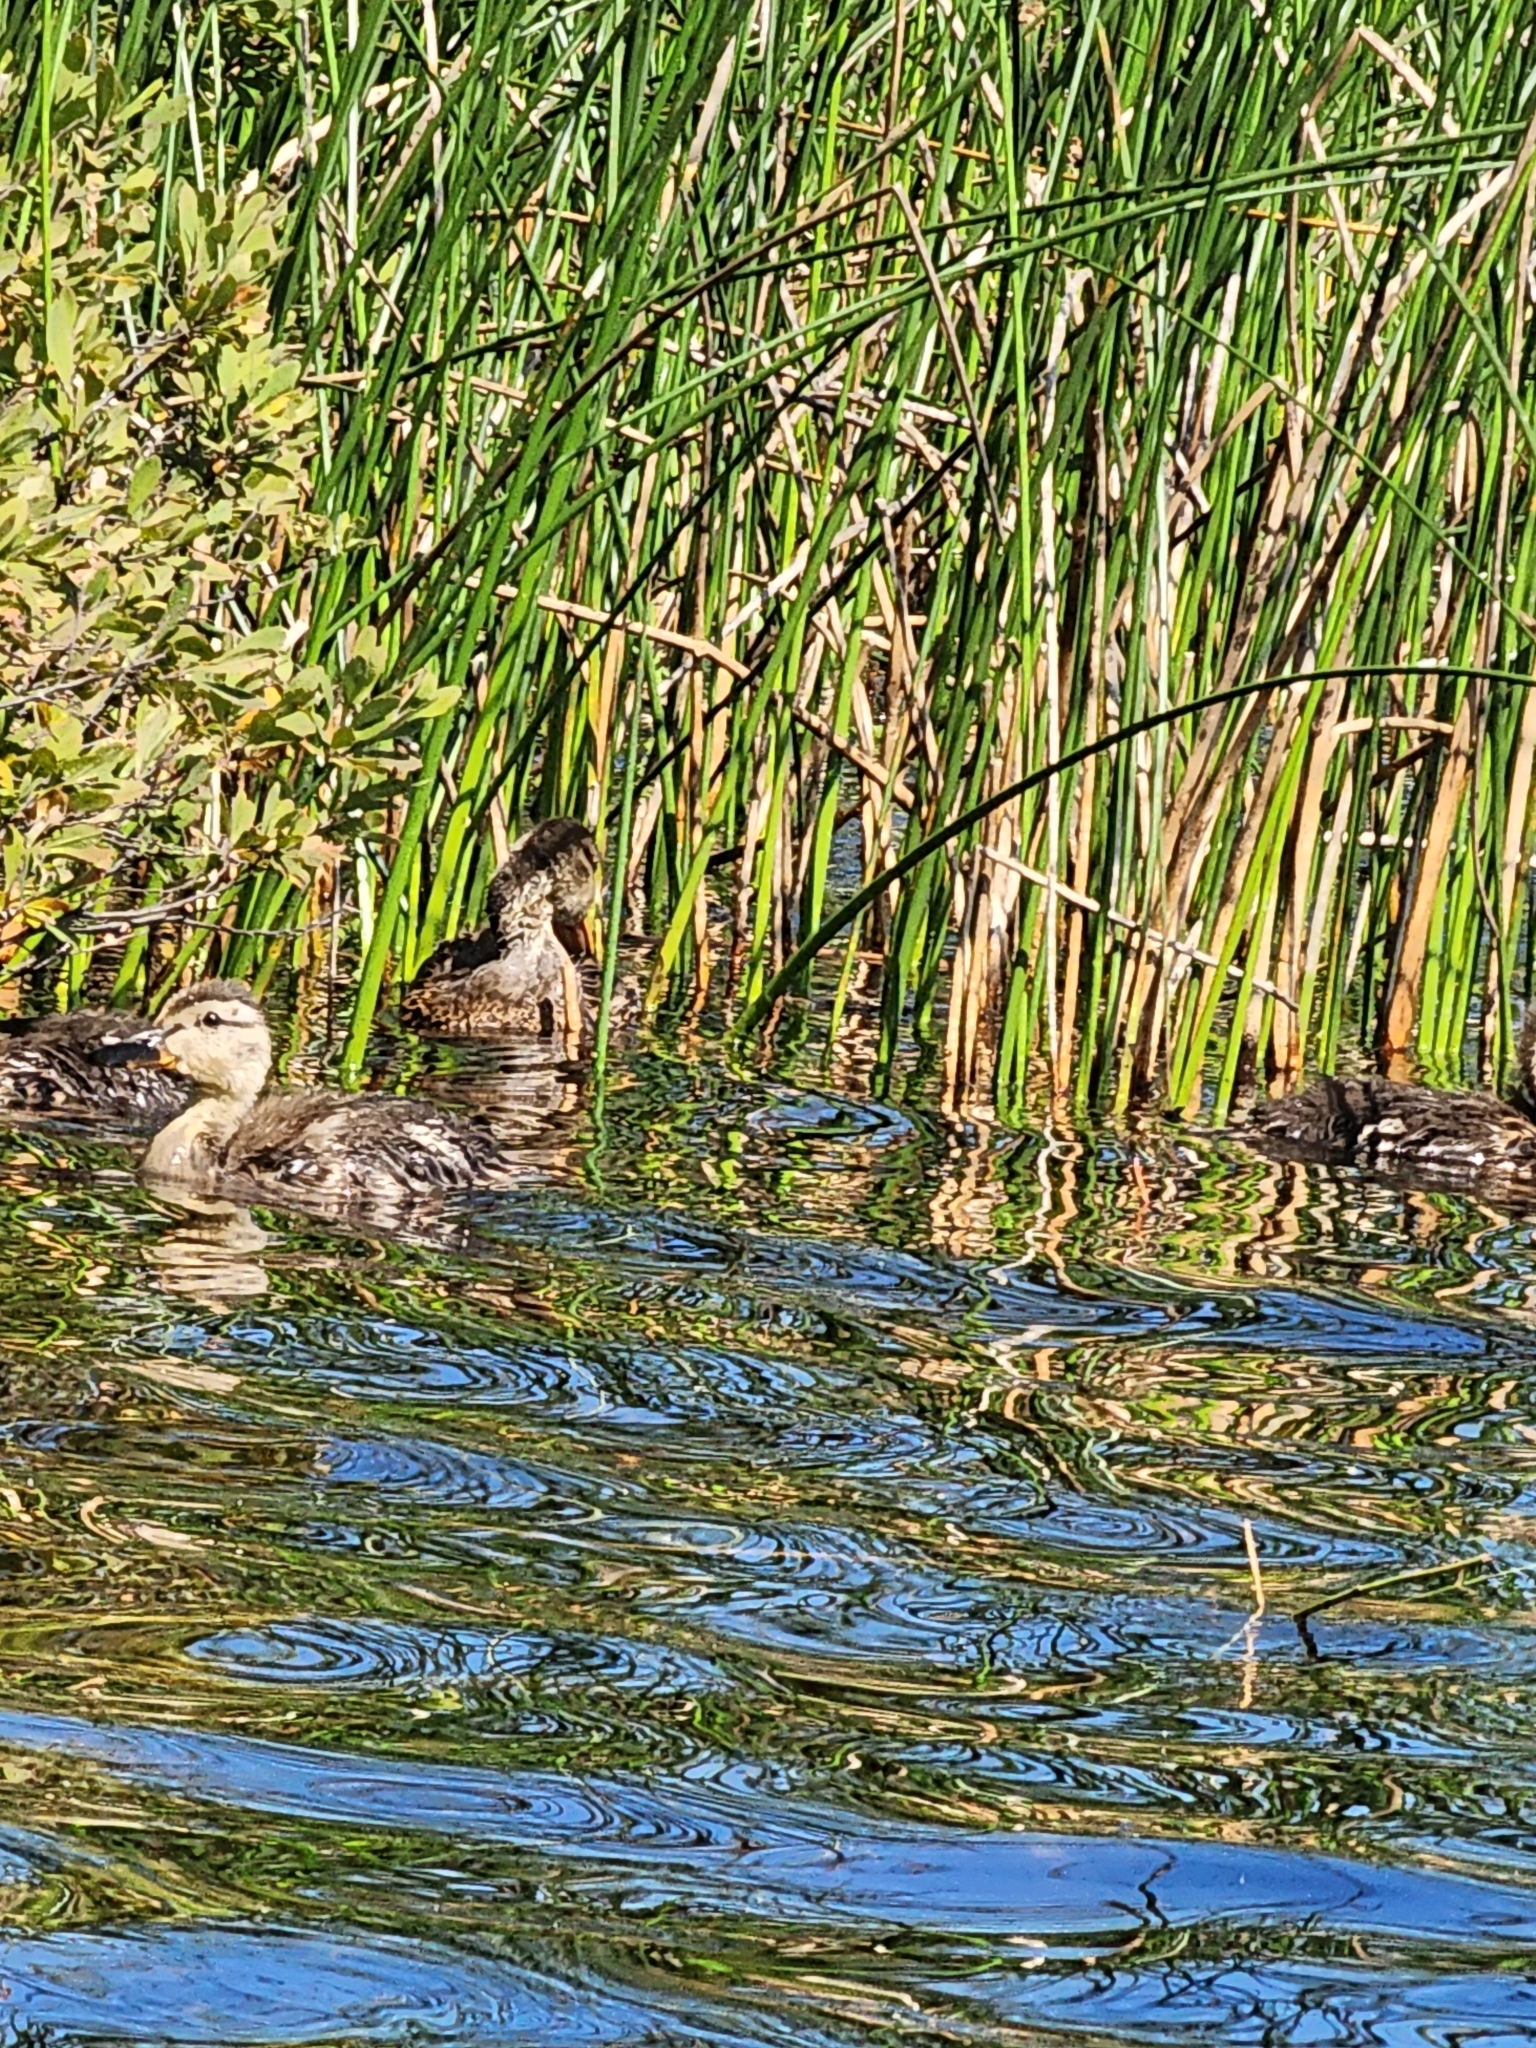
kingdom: Animalia
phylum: Chordata
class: Aves
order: Anseriformes
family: Anatidae
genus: Anas
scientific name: Anas platyrhynchos
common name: Mallard
